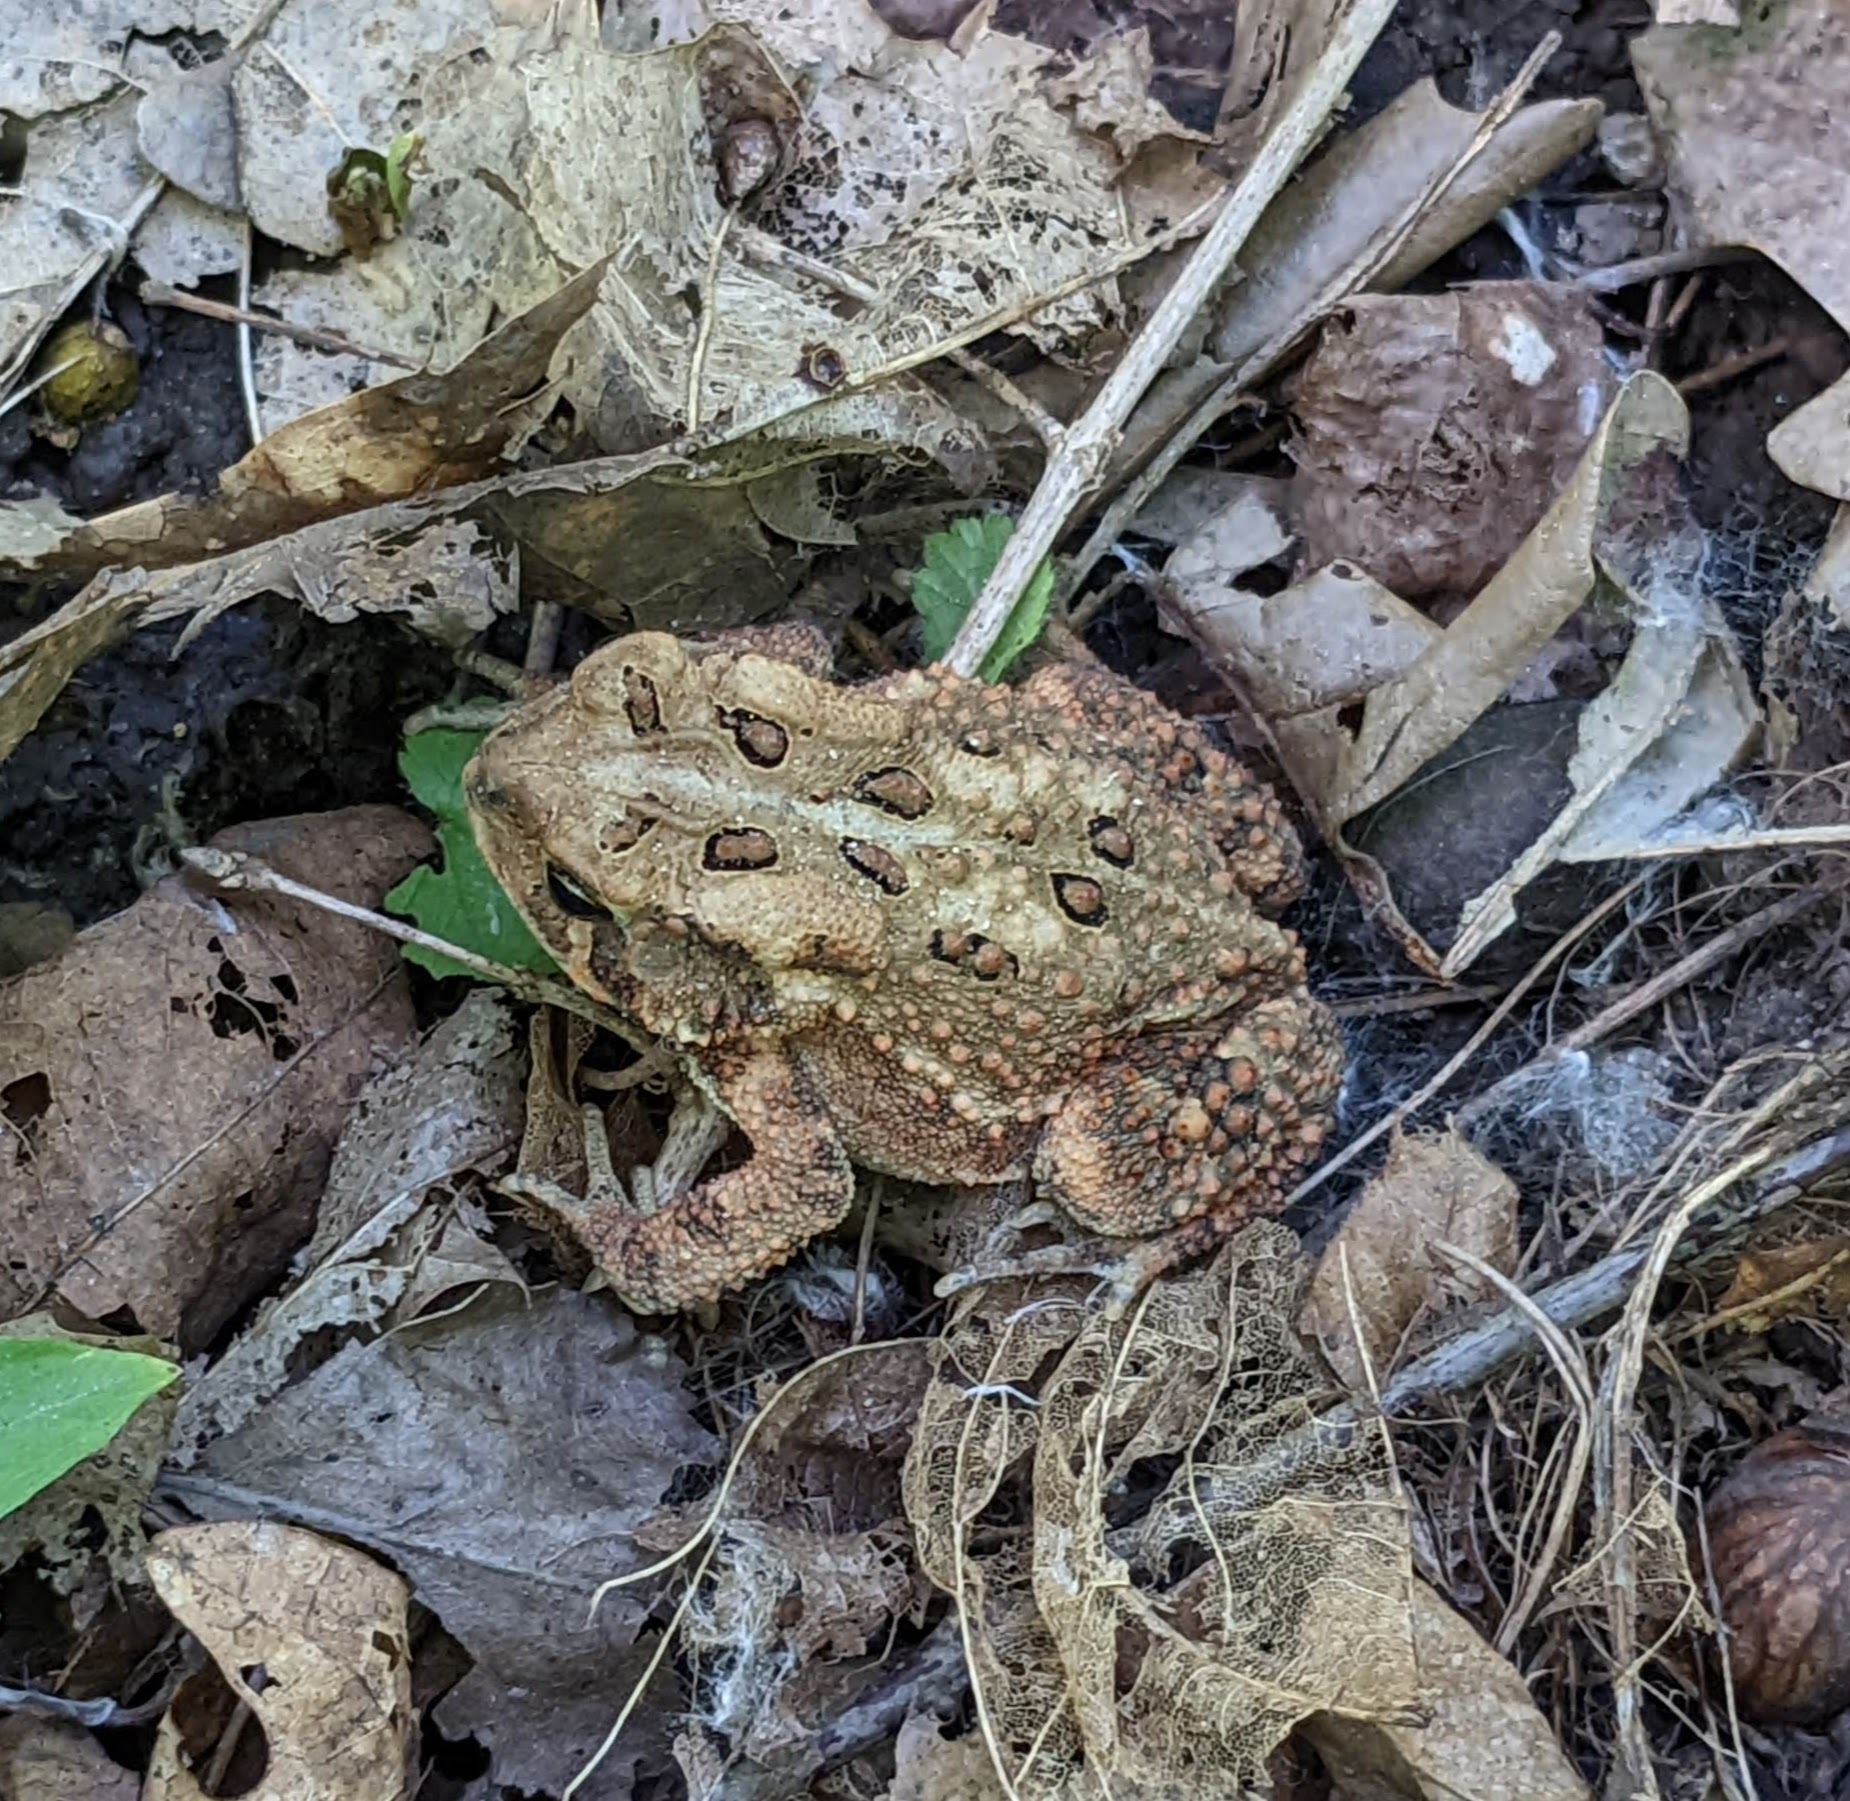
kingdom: Animalia
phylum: Chordata
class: Amphibia
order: Anura
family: Bufonidae
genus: Anaxyrus
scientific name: Anaxyrus americanus
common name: American toad
